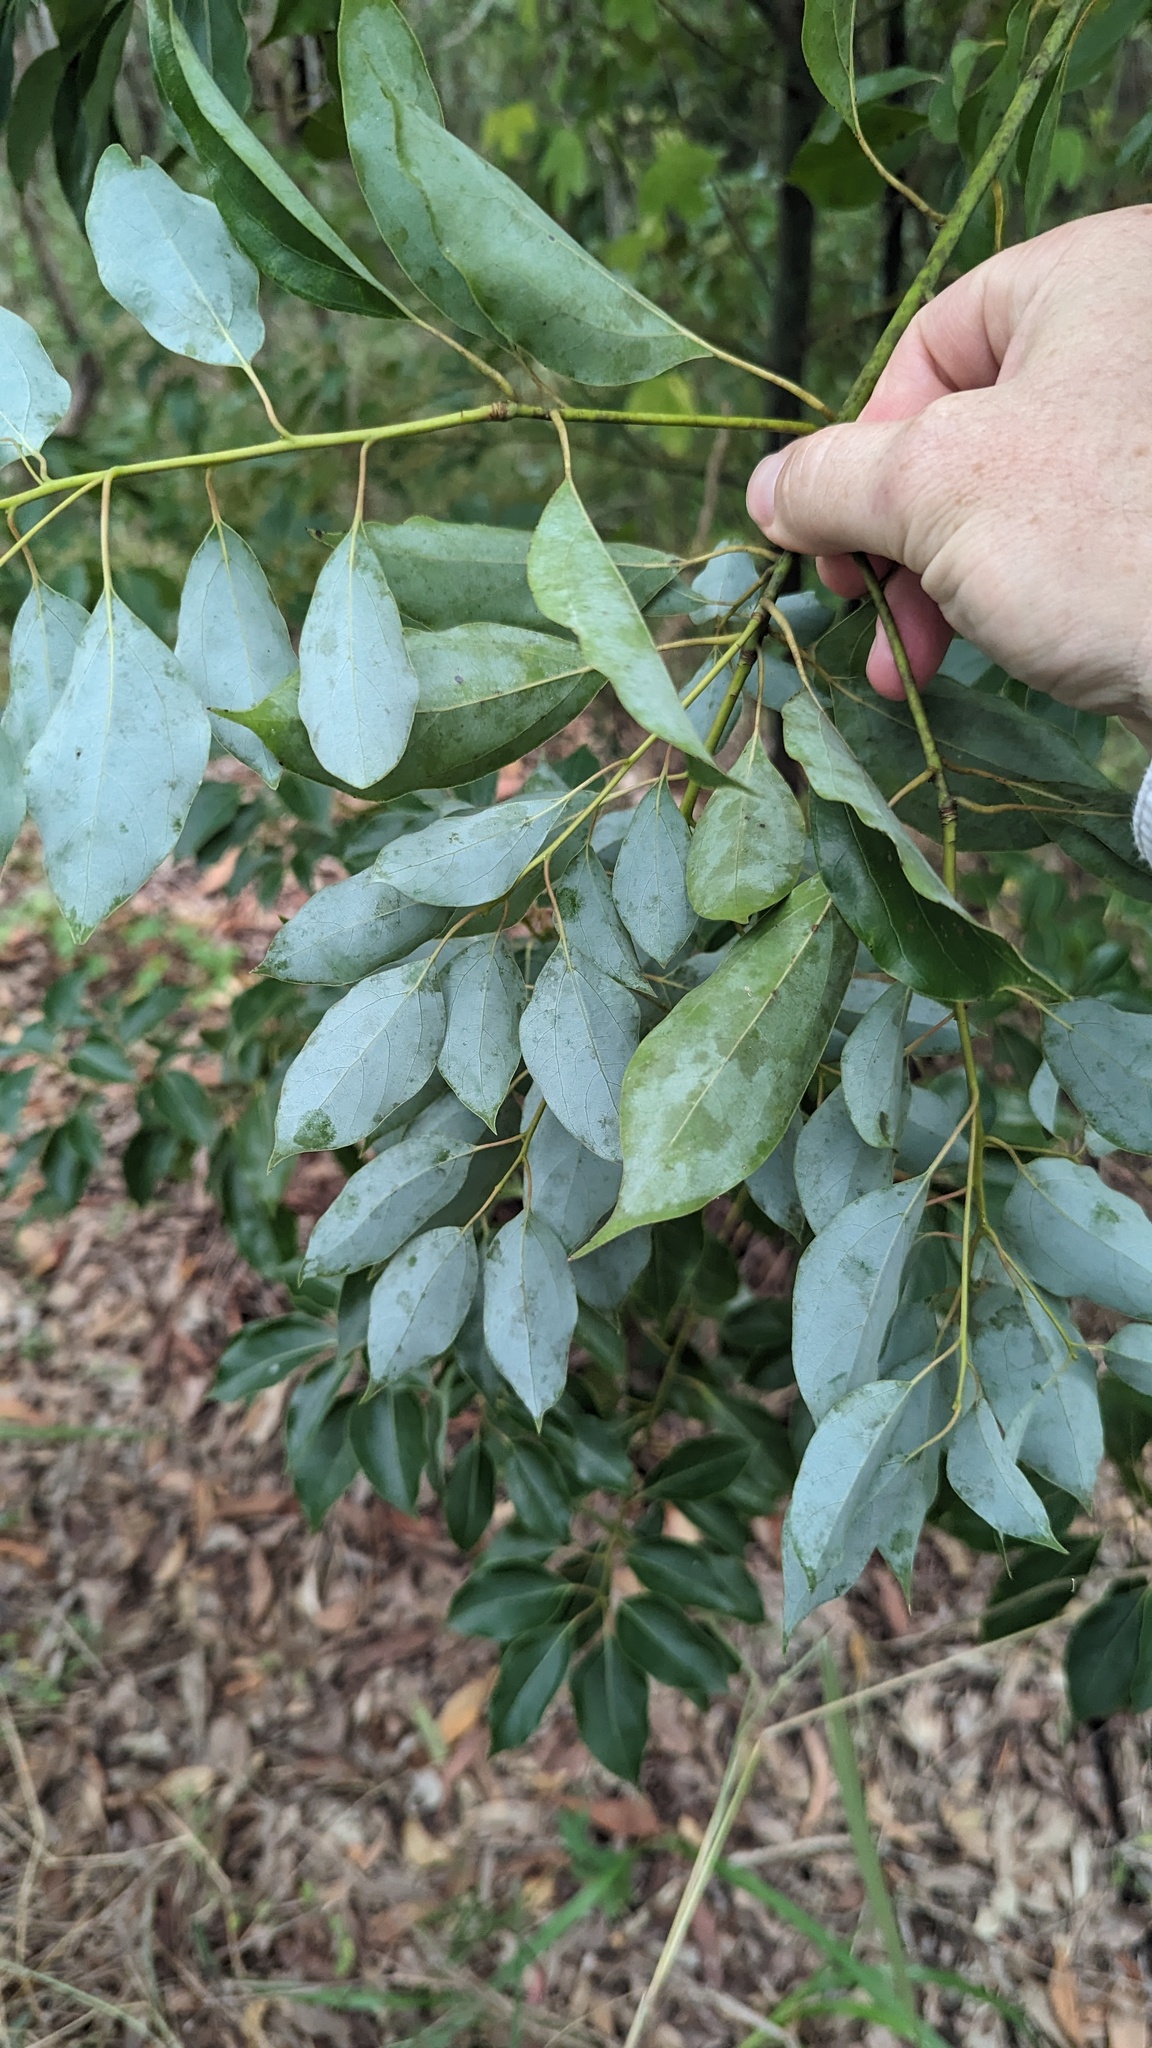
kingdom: Plantae
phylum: Tracheophyta
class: Magnoliopsida
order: Laurales
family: Lauraceae
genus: Cinnamomum
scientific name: Cinnamomum camphora
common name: Camphortree
